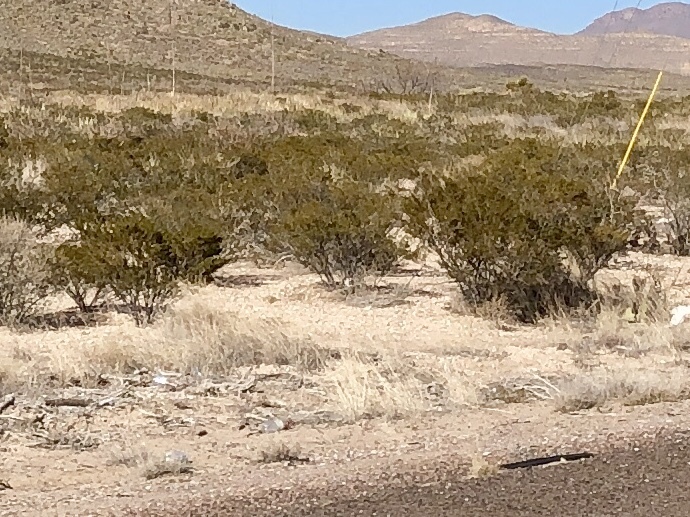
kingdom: Plantae
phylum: Tracheophyta
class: Magnoliopsida
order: Zygophyllales
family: Zygophyllaceae
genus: Larrea
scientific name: Larrea tridentata
